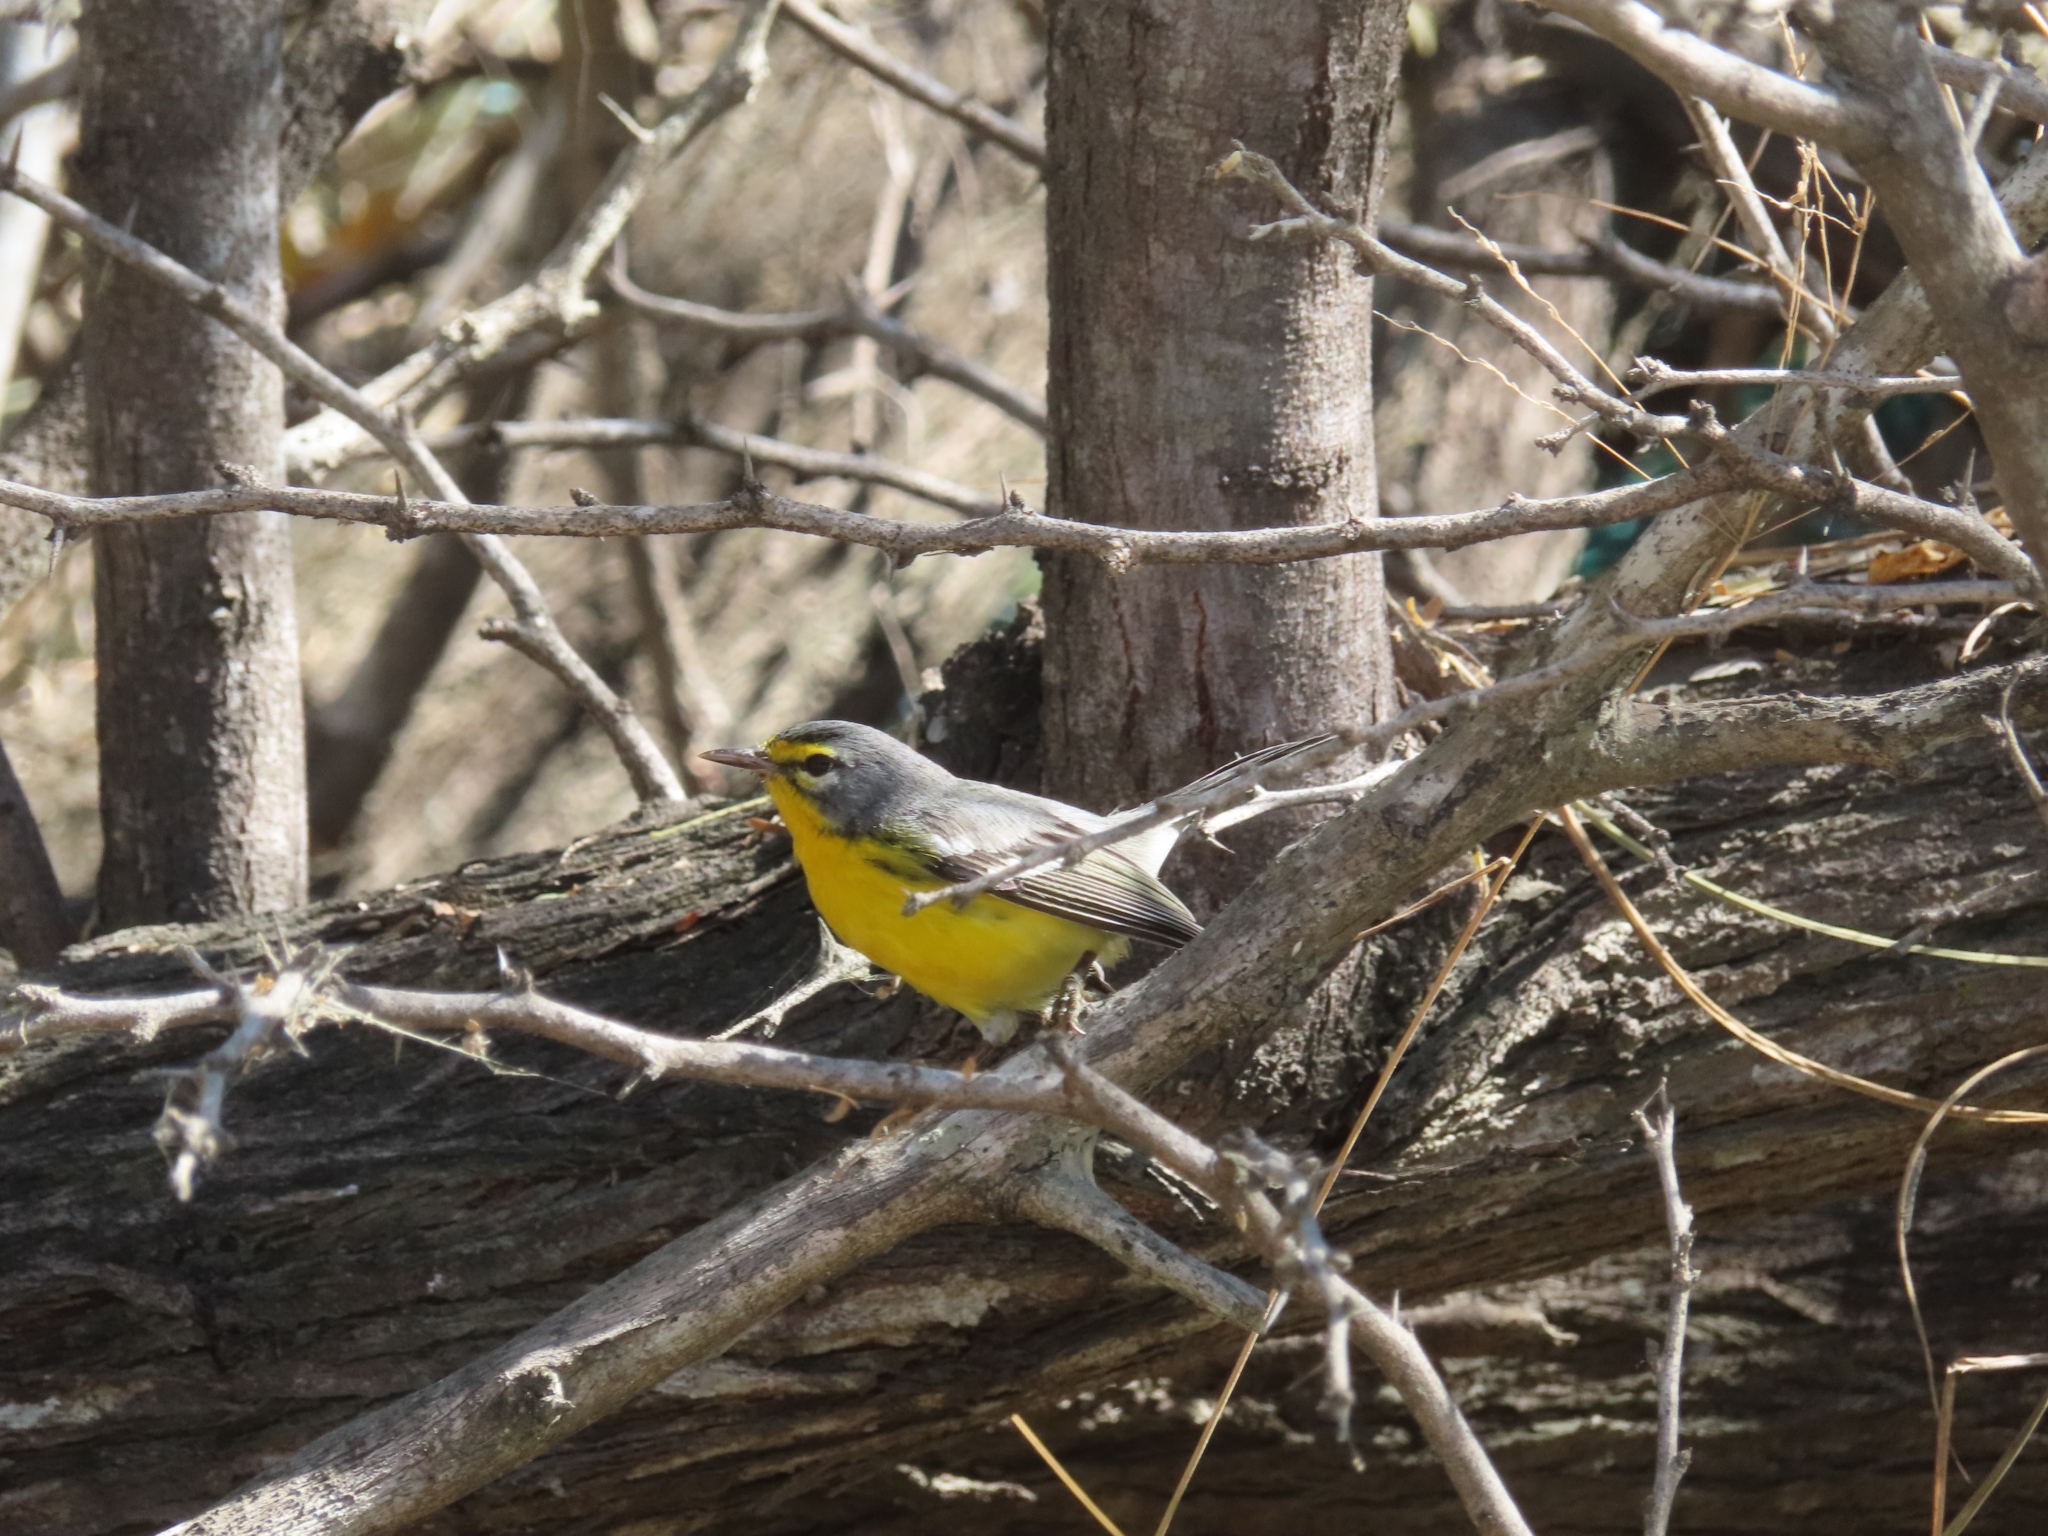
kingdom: Animalia
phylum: Chordata
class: Aves
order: Passeriformes
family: Parulidae
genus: Setophaga
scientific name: Setophaga adelaidae
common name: Adelaide's warbler
